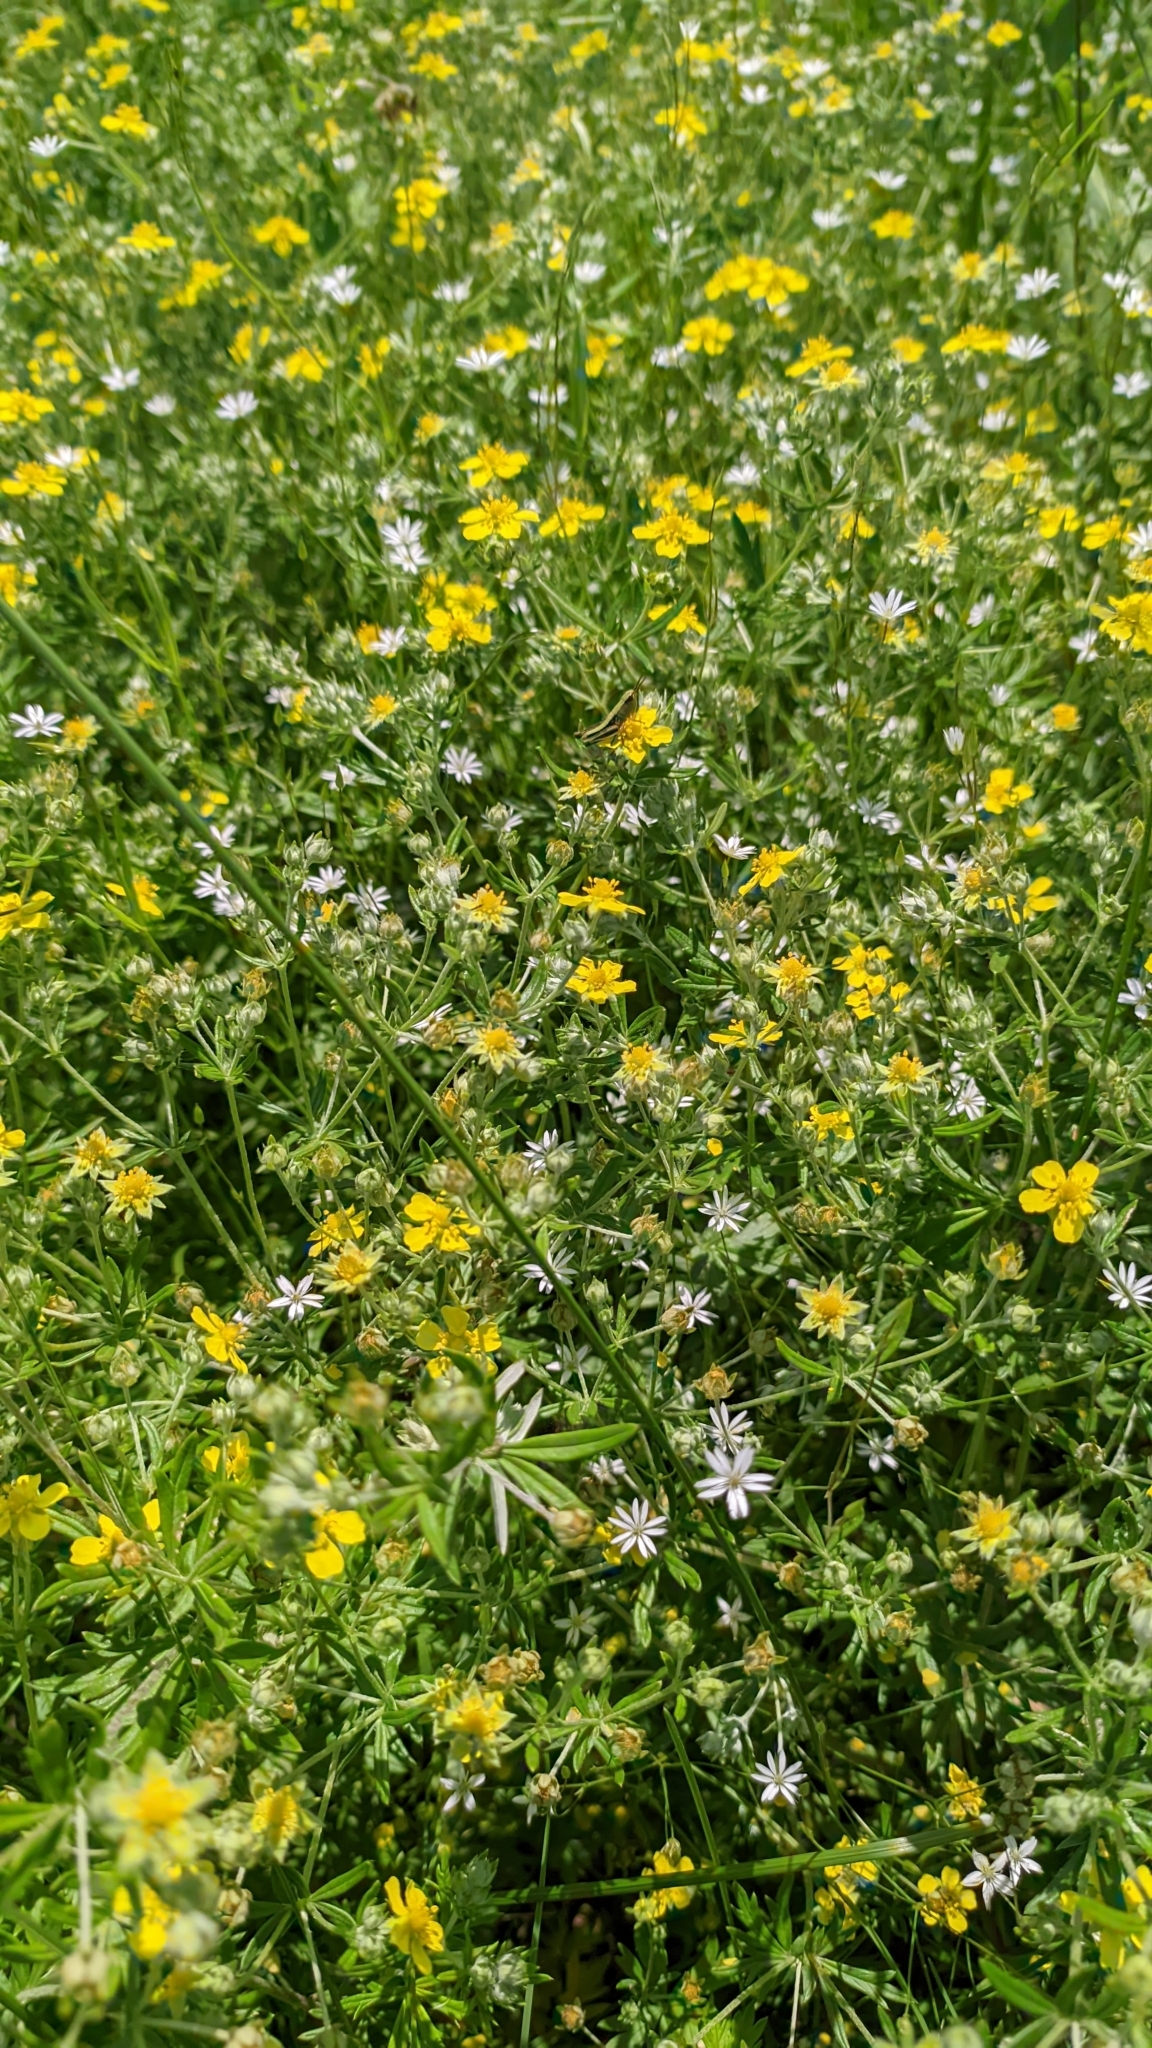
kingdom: Plantae
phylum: Tracheophyta
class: Magnoliopsida
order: Rosales
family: Rosaceae
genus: Potentilla
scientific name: Potentilla argentea
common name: Hoary cinquefoil
